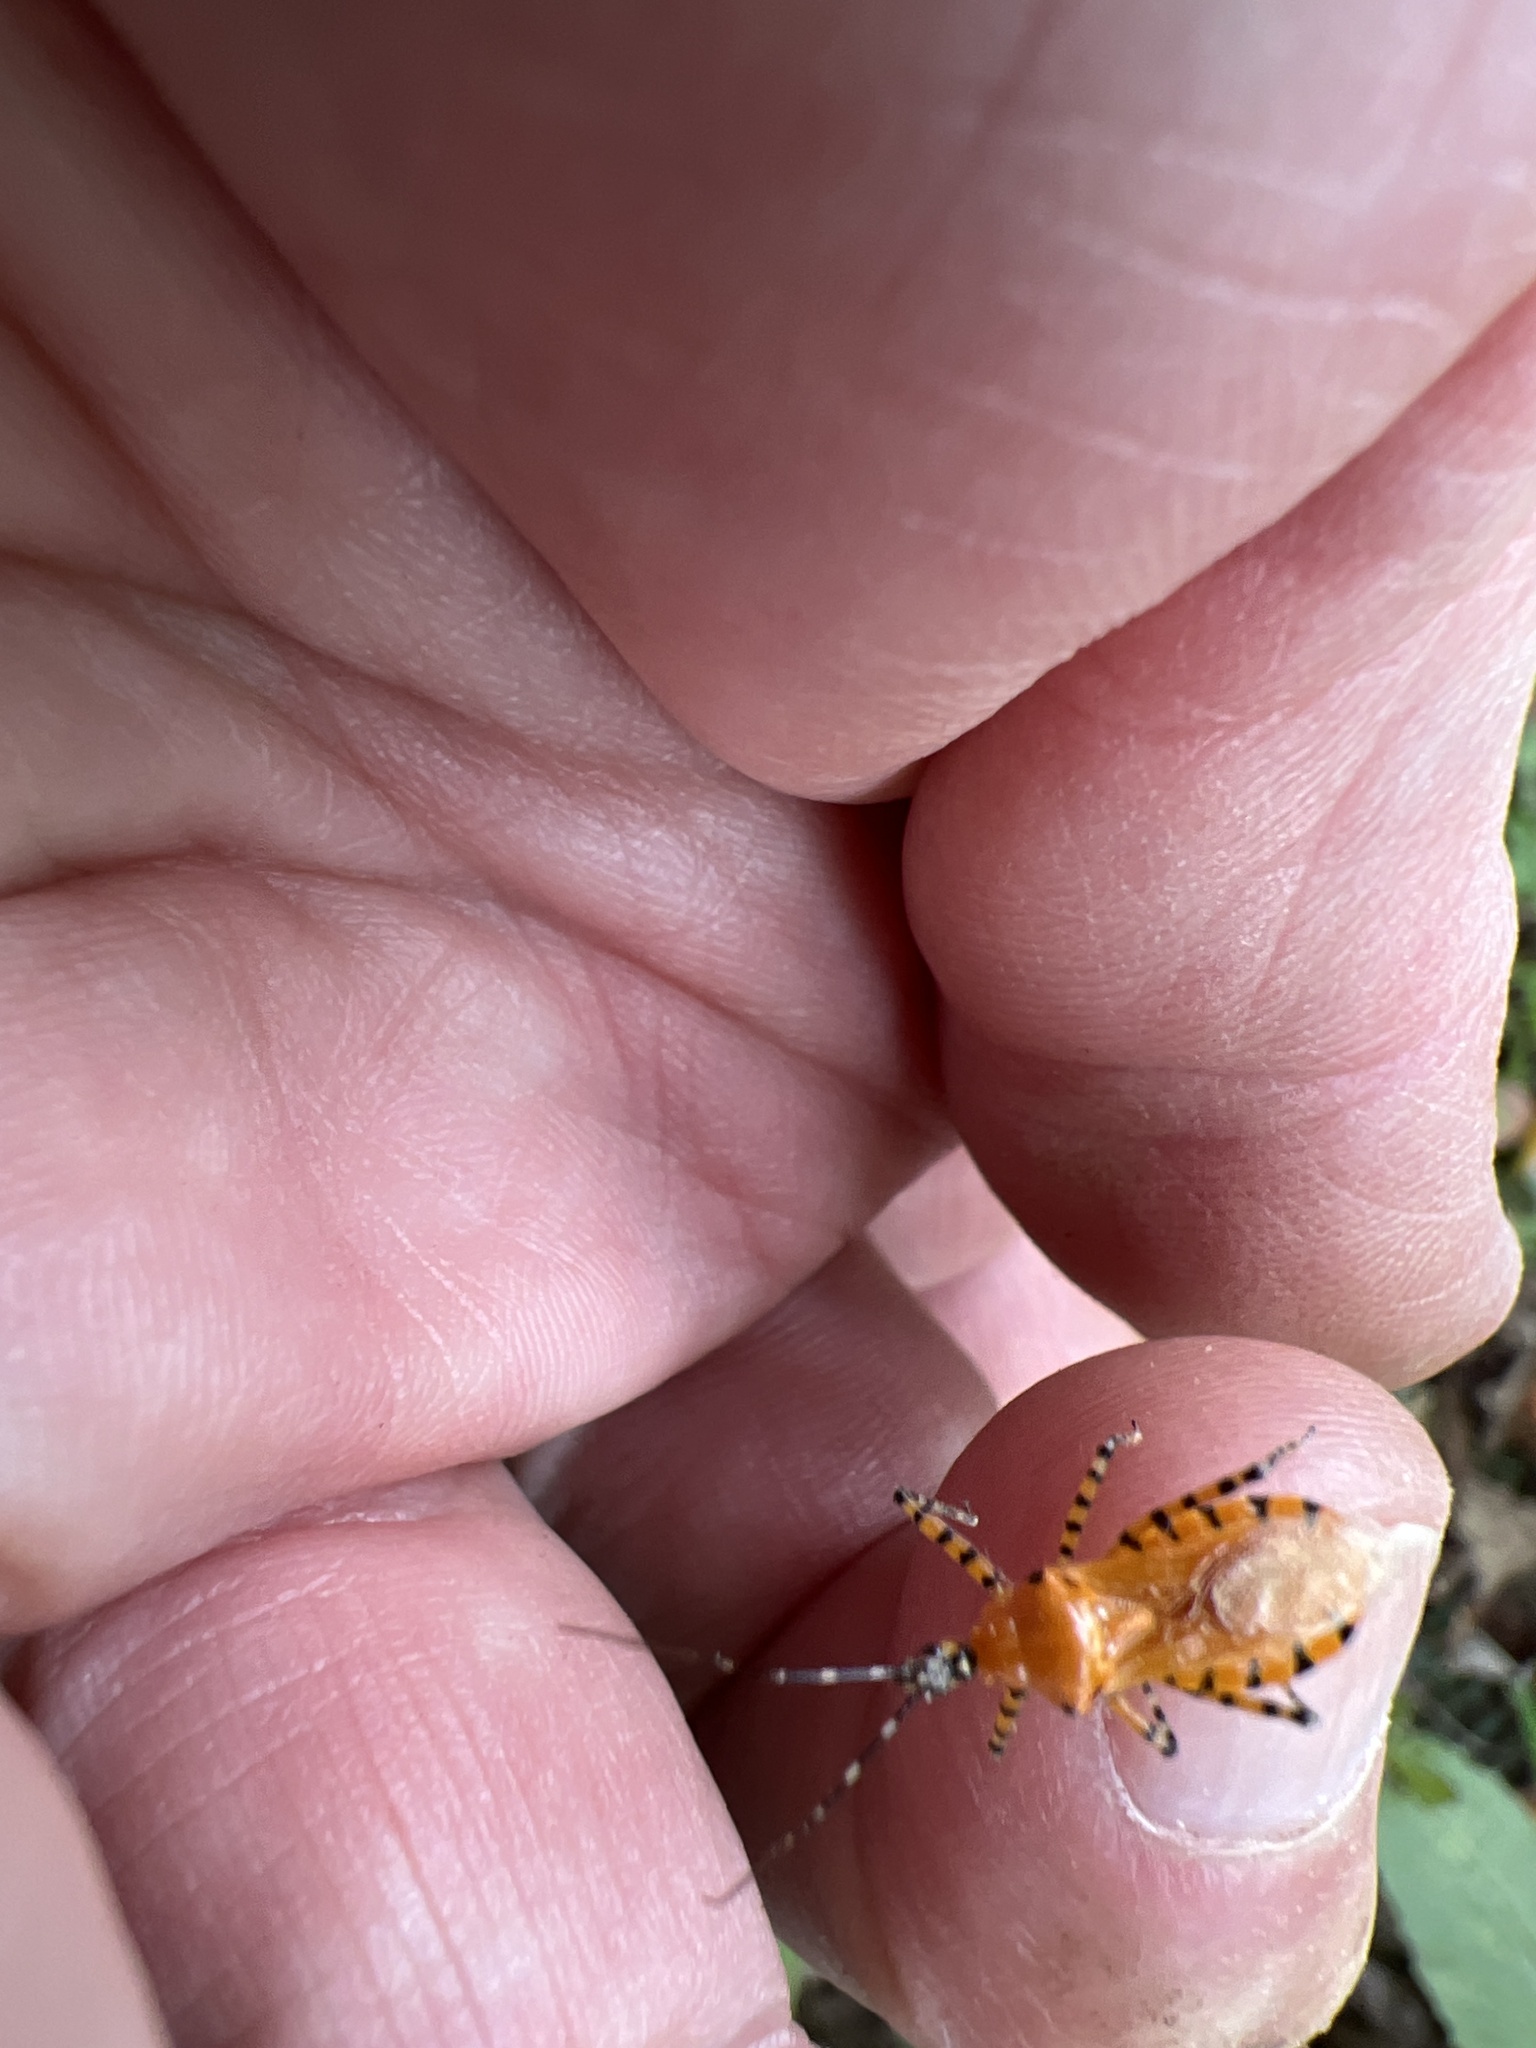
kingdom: Animalia
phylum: Arthropoda
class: Insecta
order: Hemiptera
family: Reduviidae
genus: Pselliopus
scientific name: Pselliopus barberi
